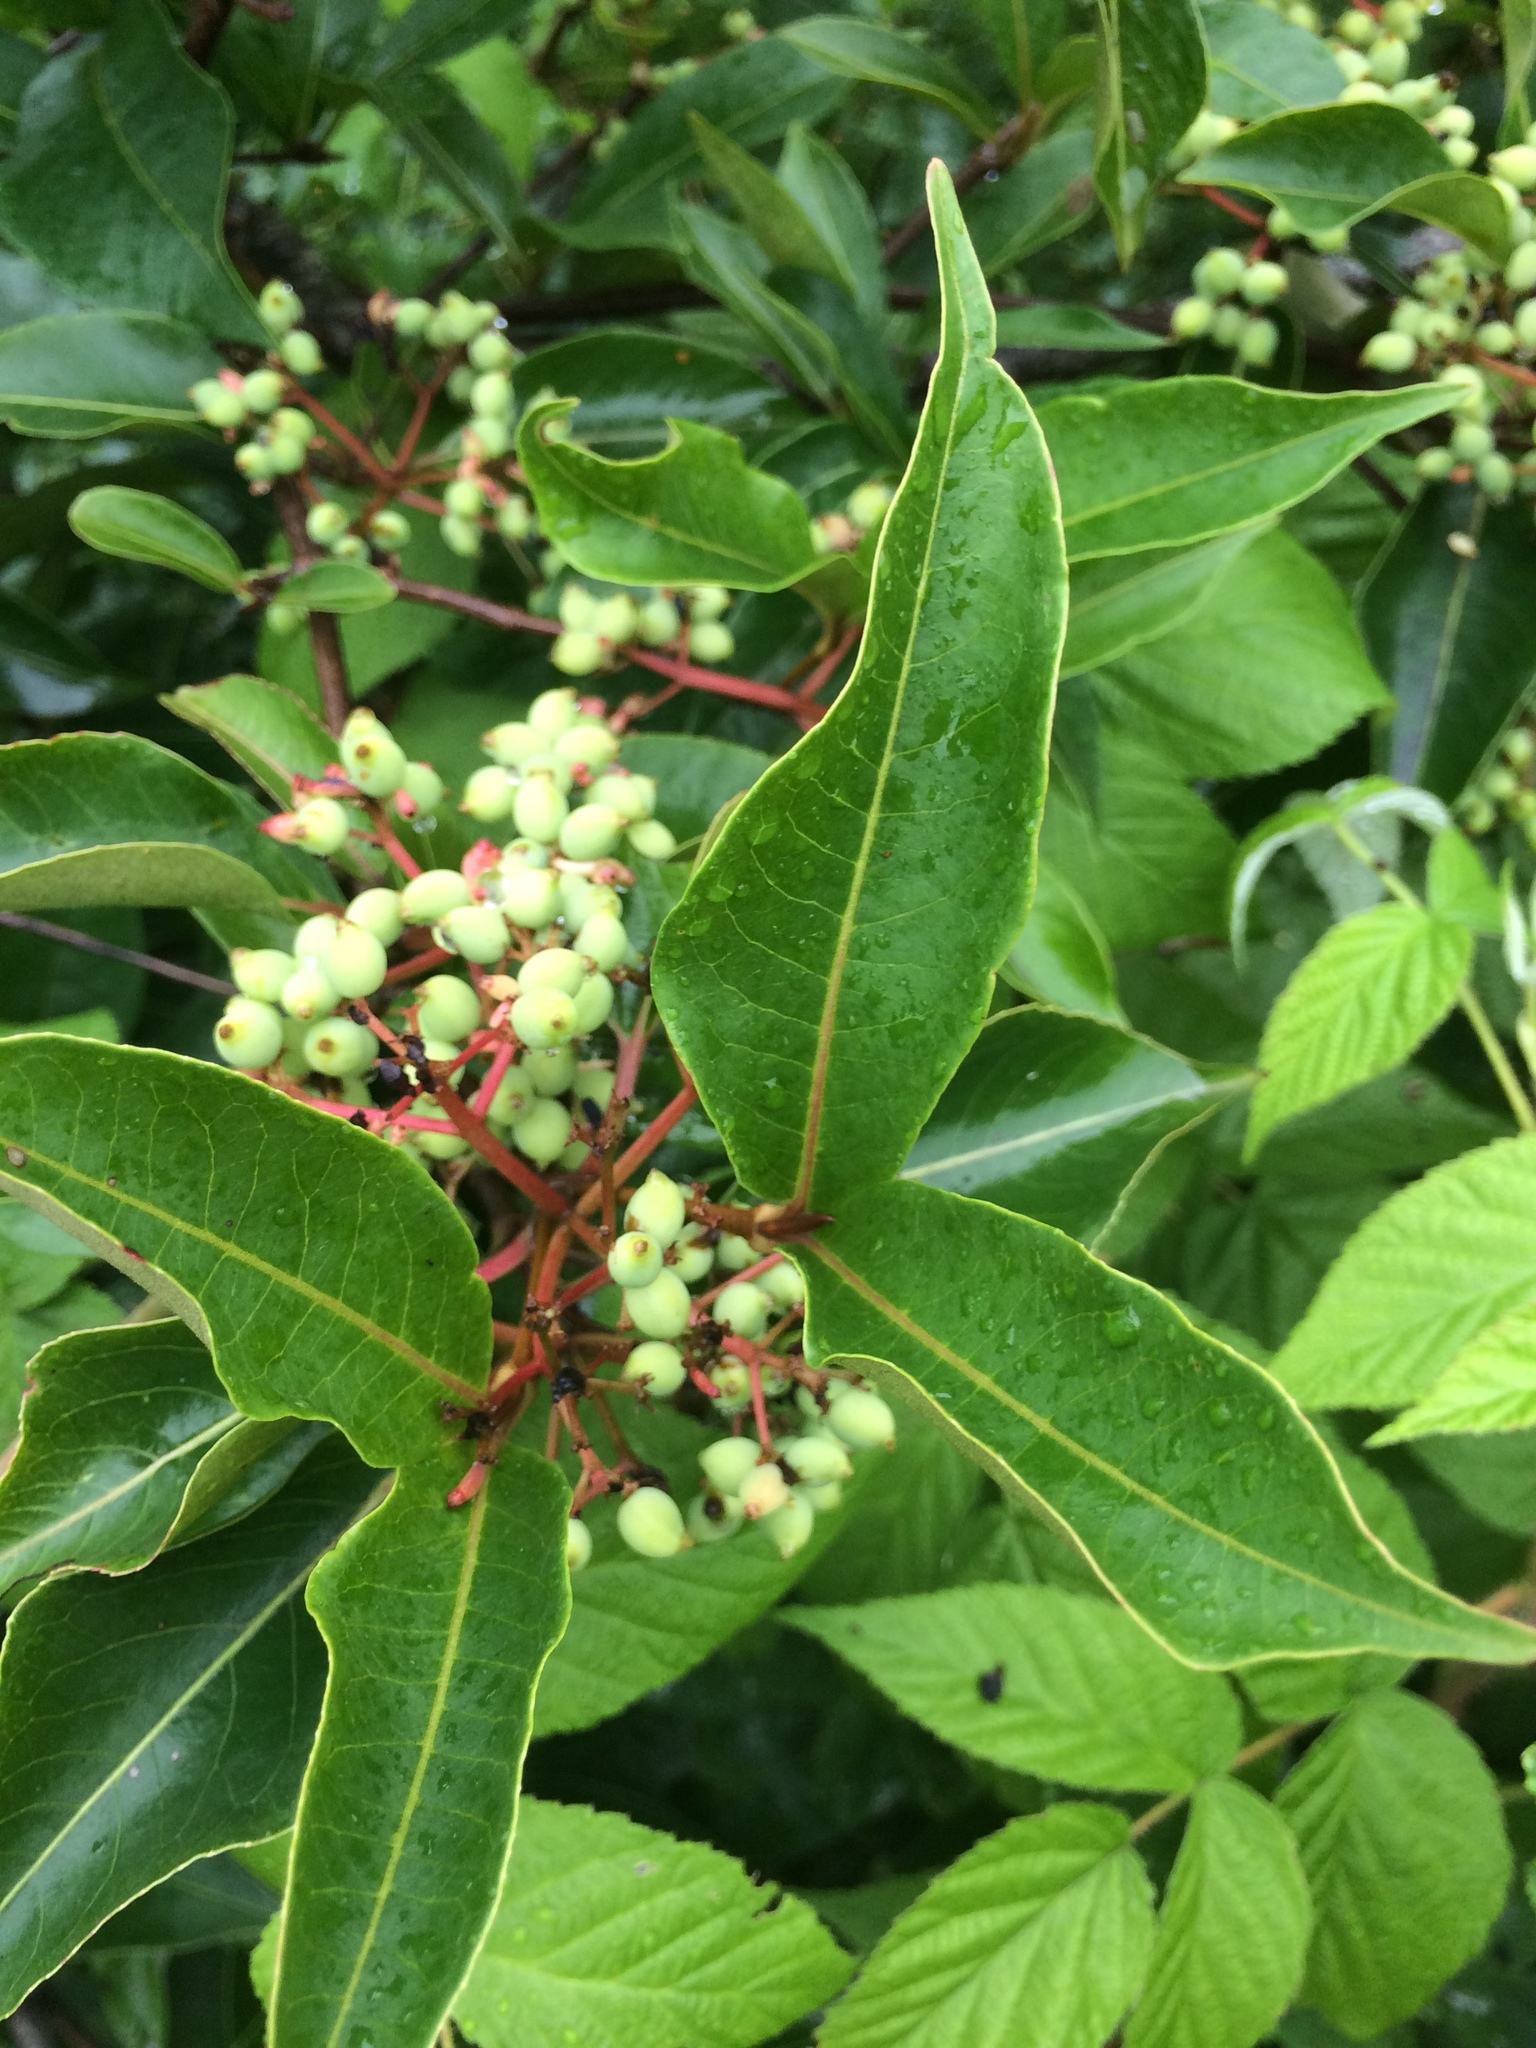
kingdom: Plantae
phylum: Tracheophyta
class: Magnoliopsida
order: Dipsacales
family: Viburnaceae
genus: Viburnum
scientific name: Viburnum cassinoides
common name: Swamp haw
